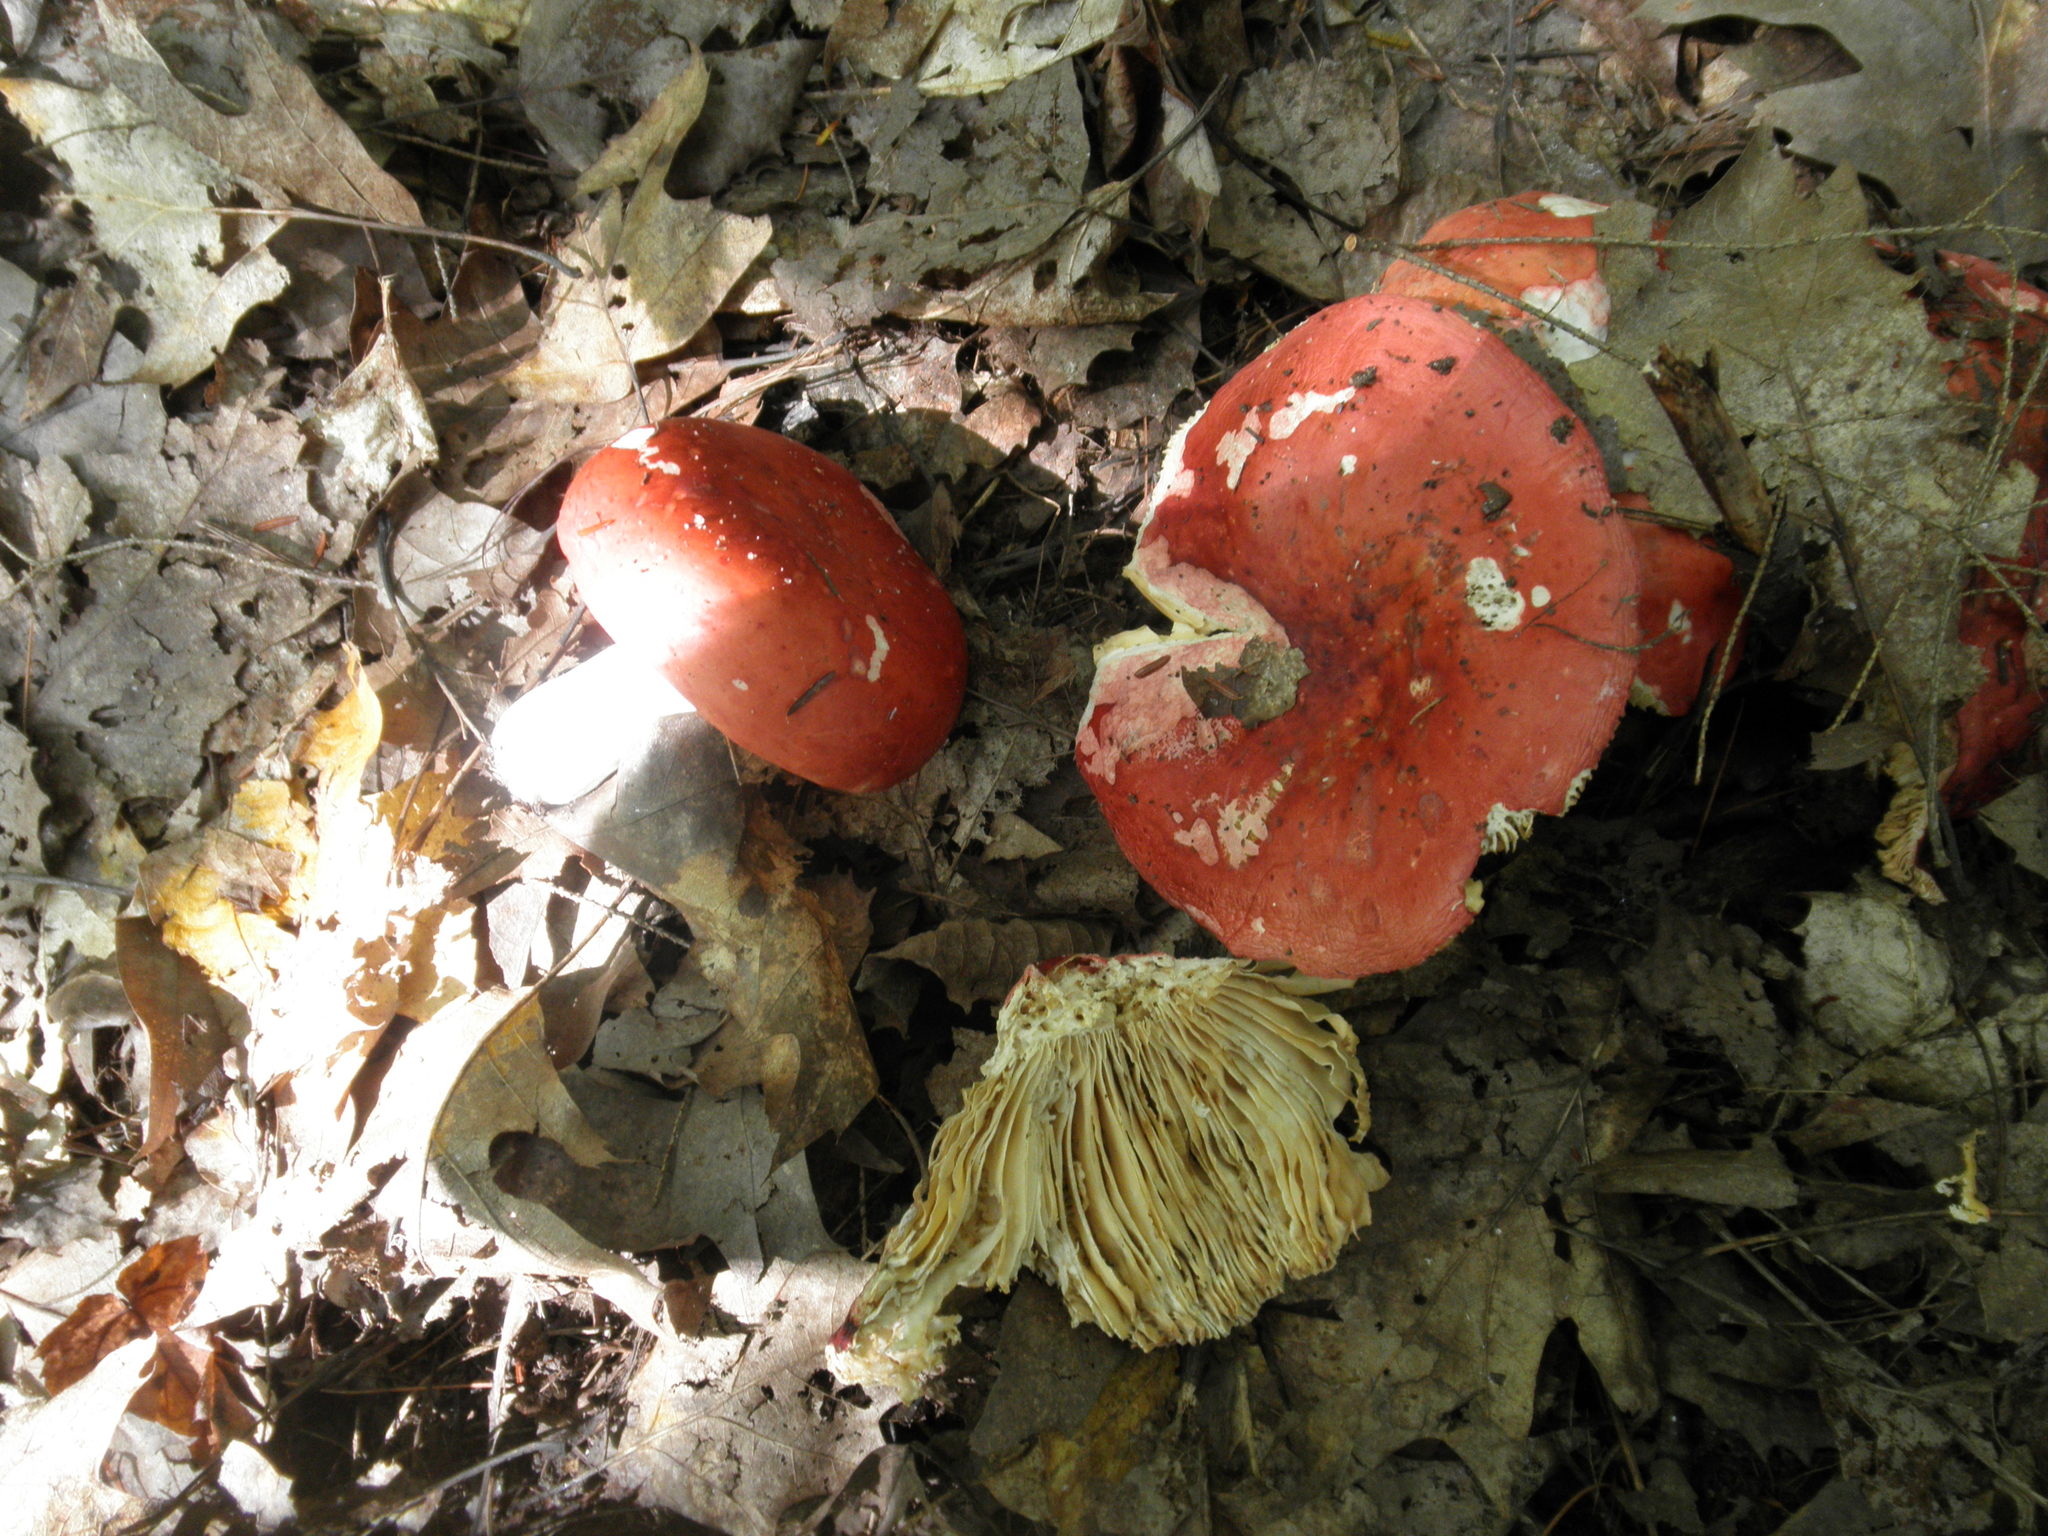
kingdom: Fungi
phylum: Basidiomycota
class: Agaricomycetes
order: Russulales
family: Russulaceae
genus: Russula
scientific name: Russula
